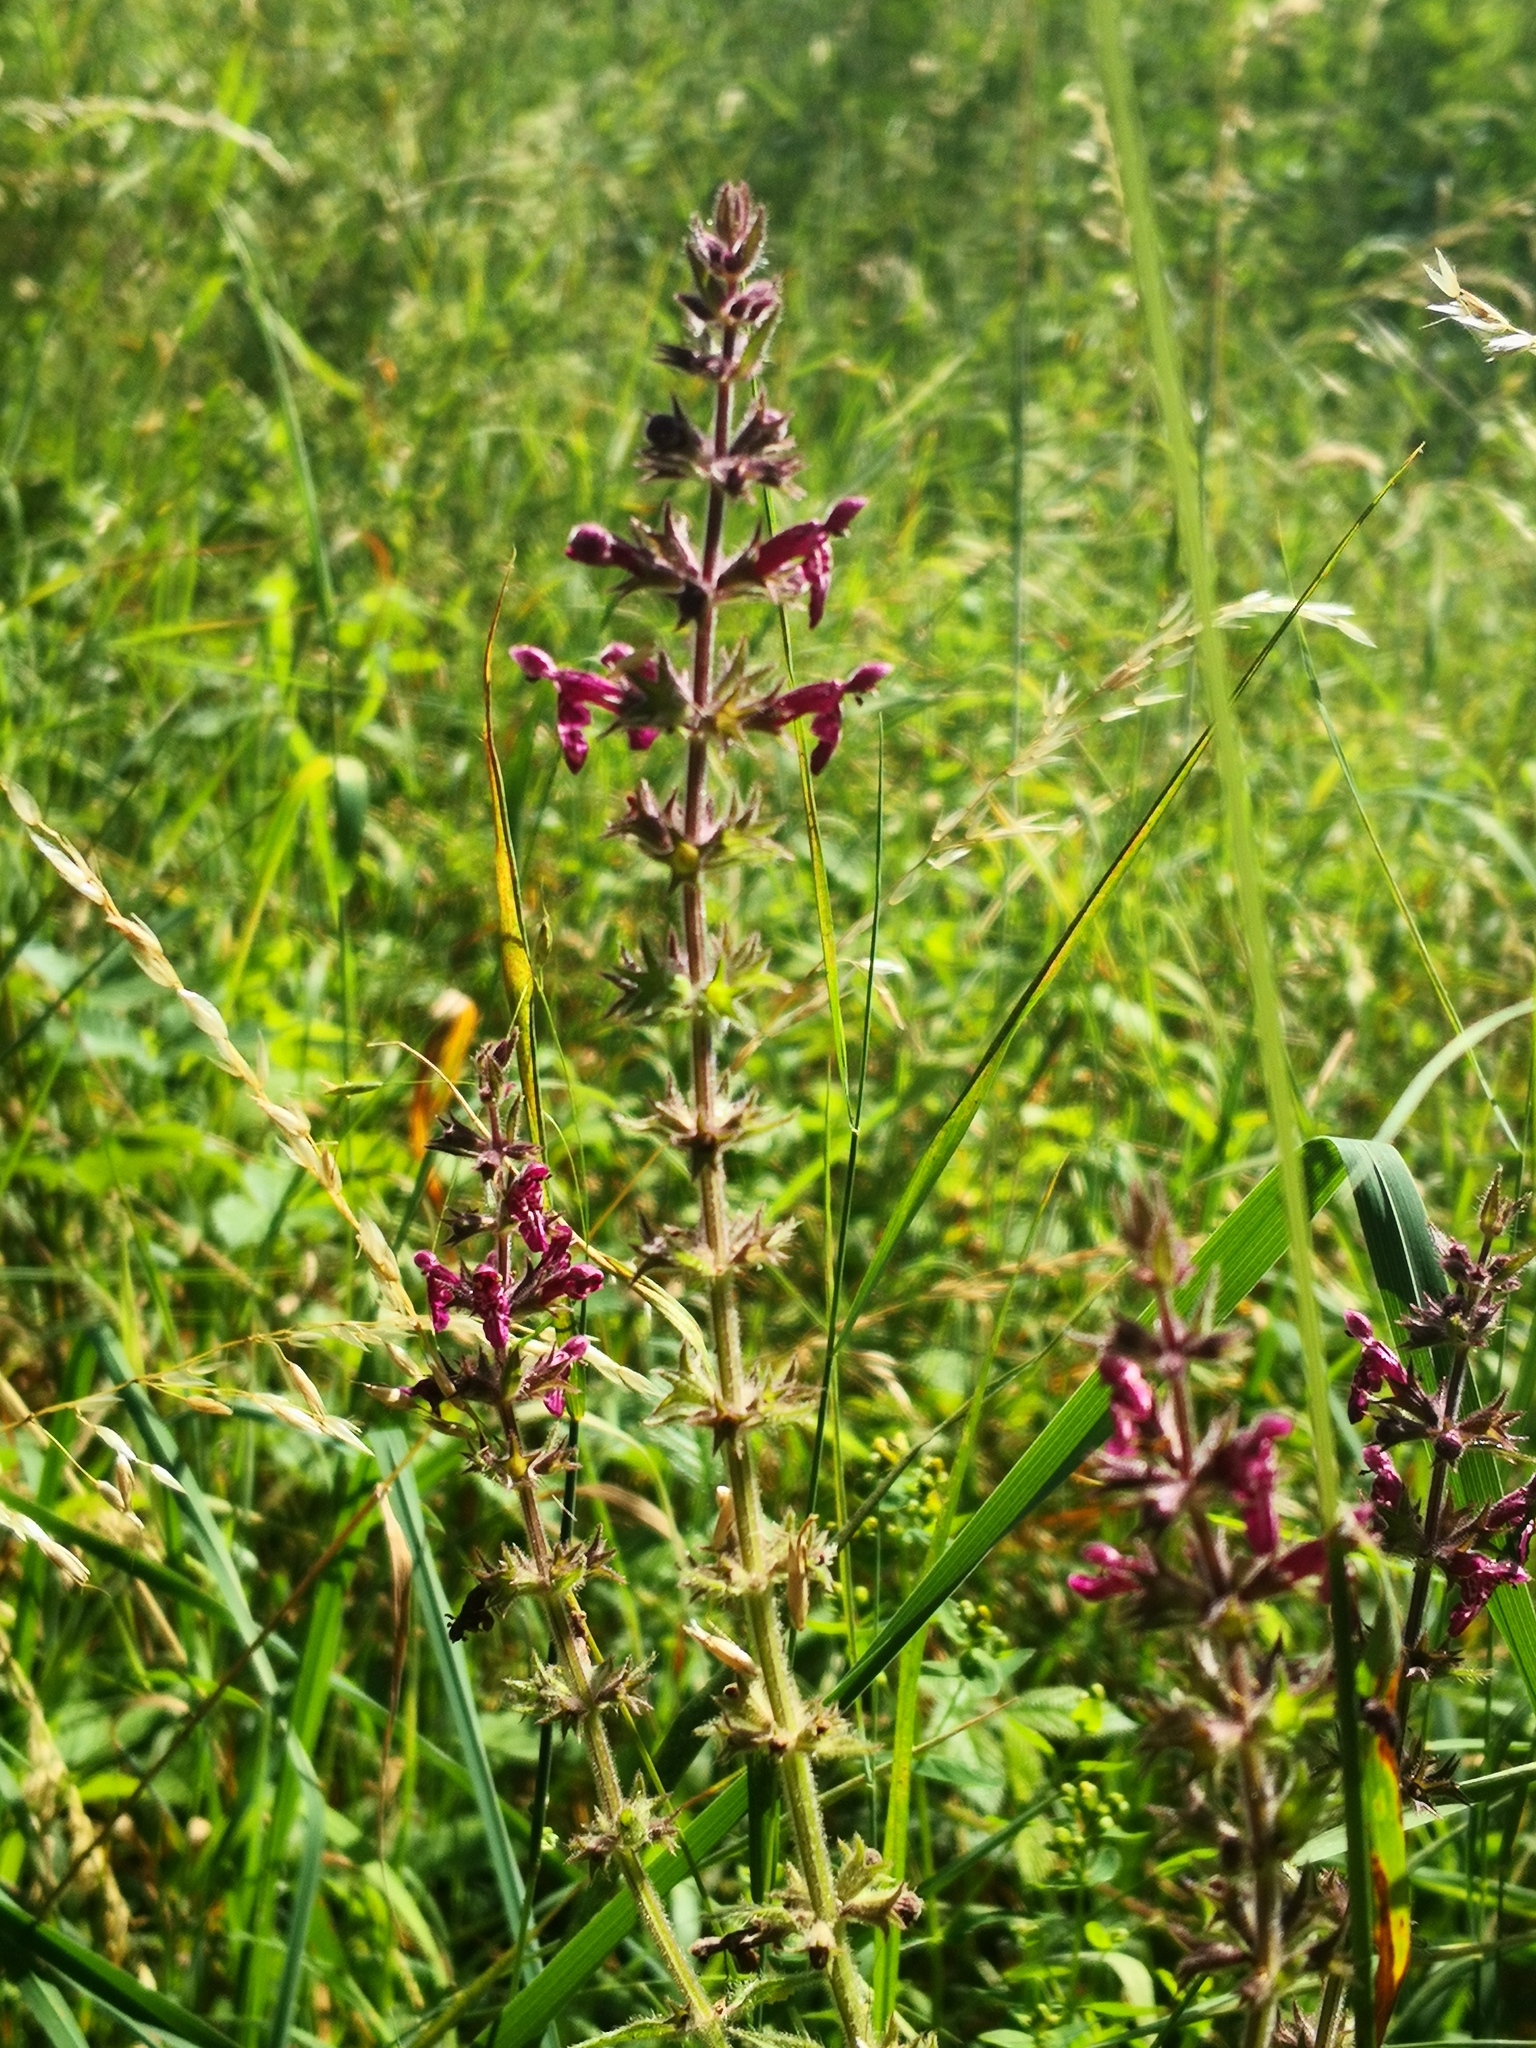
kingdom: Plantae
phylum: Tracheophyta
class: Magnoliopsida
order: Lamiales
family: Lamiaceae
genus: Stachys
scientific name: Stachys sylvatica
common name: Hedge woundwort
